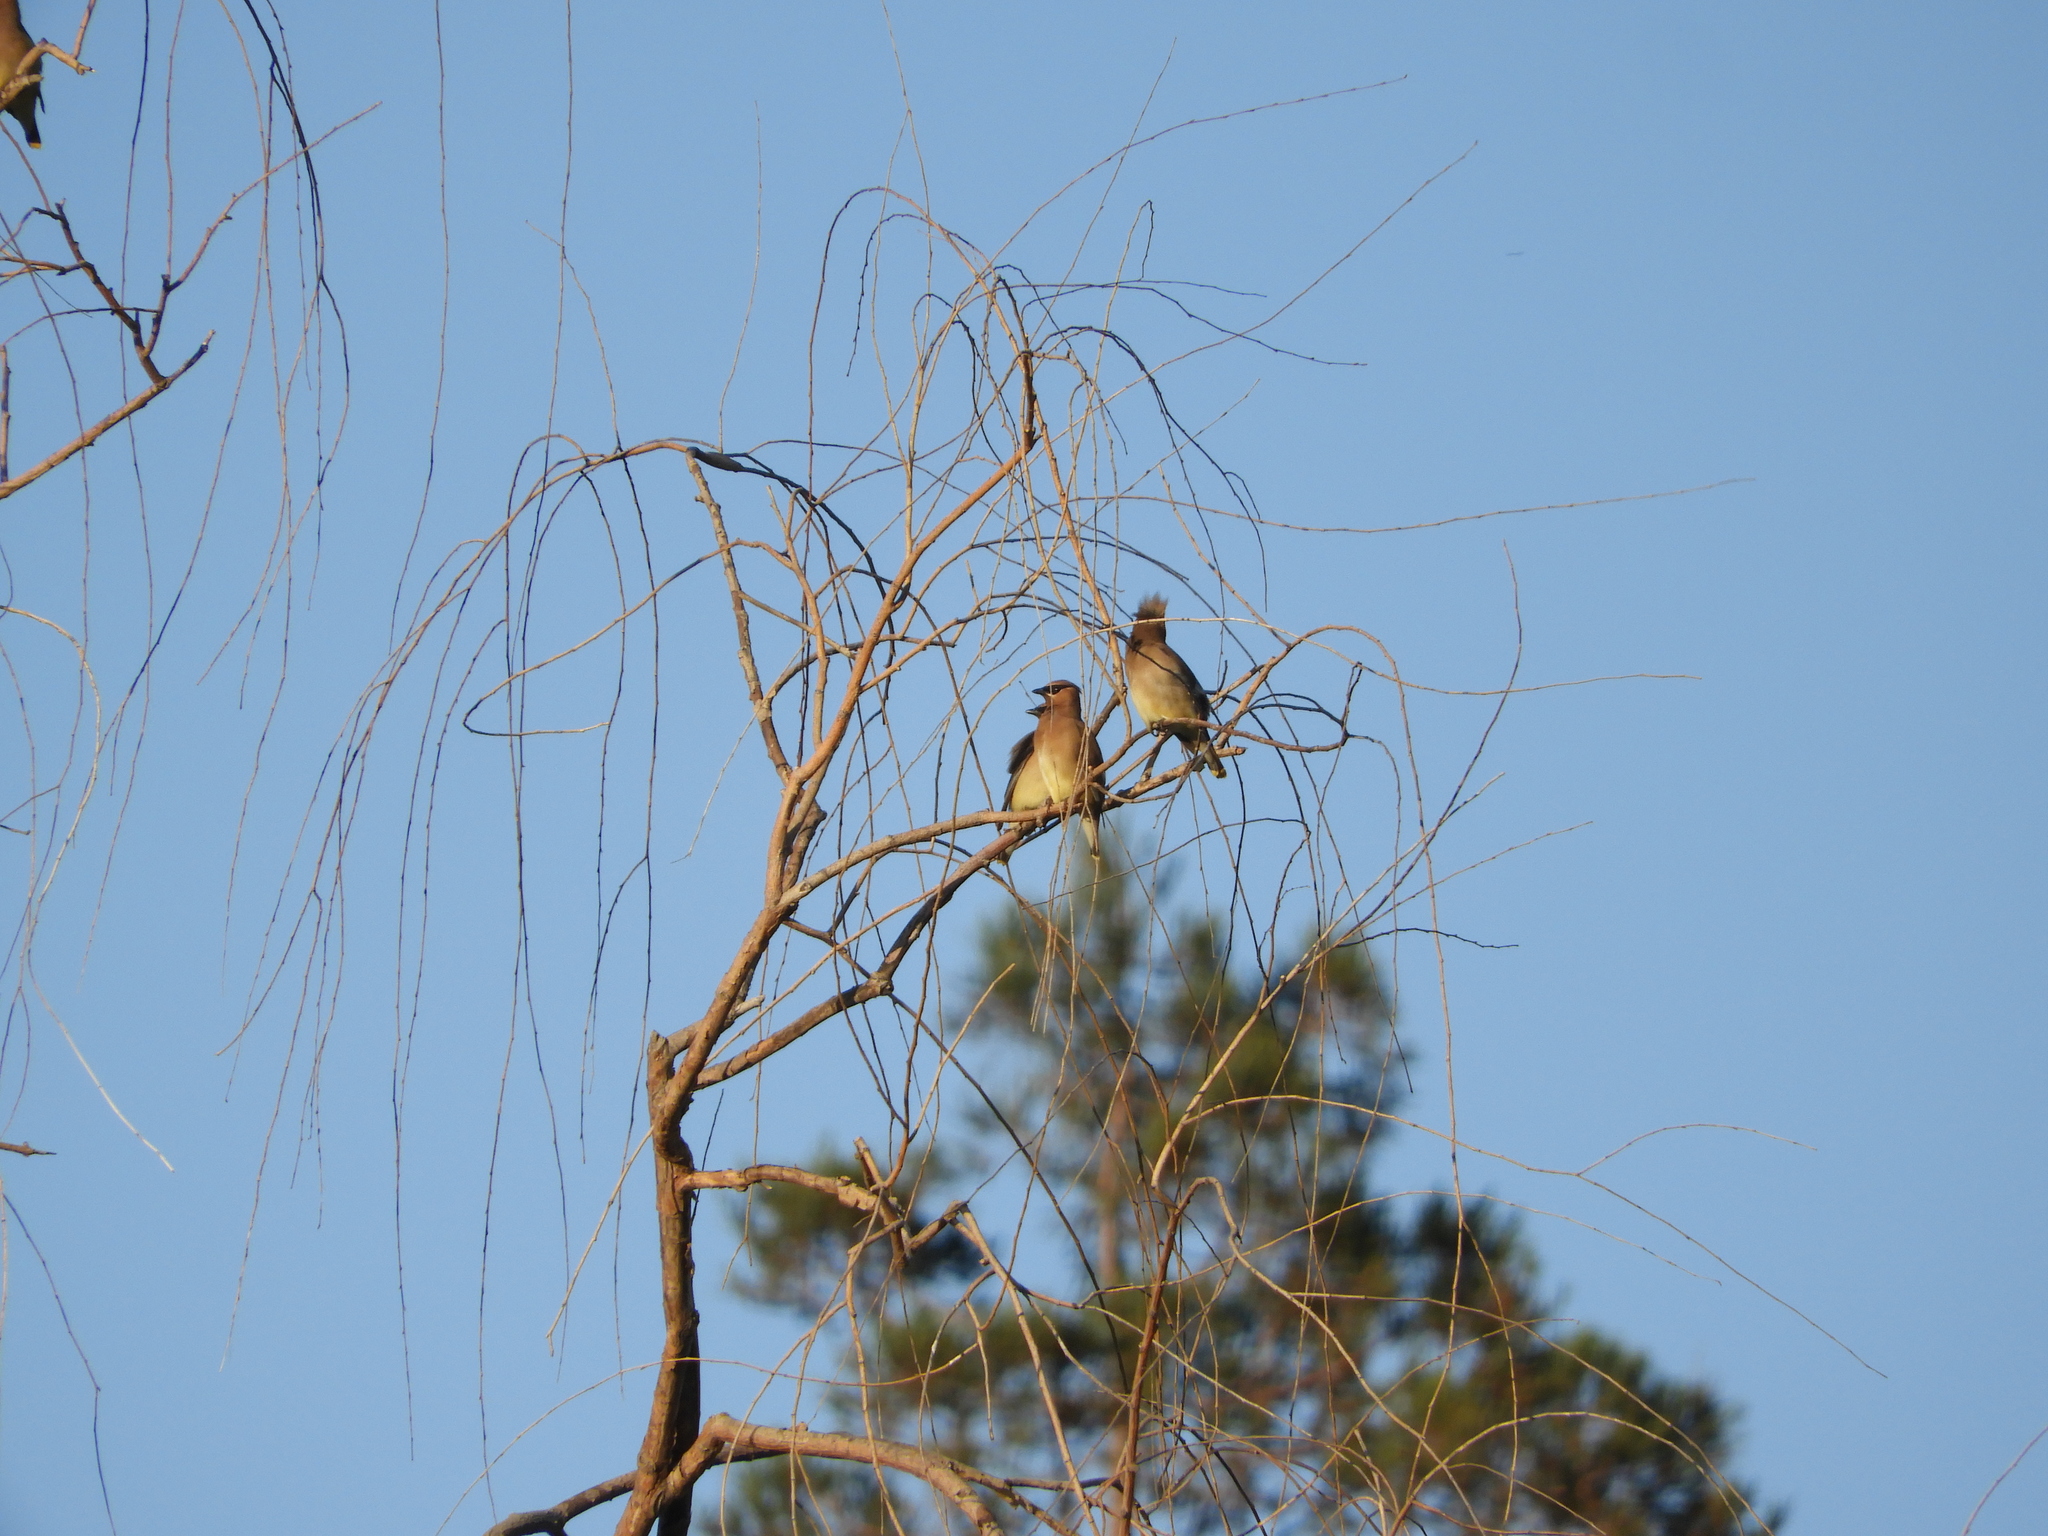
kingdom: Animalia
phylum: Chordata
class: Aves
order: Passeriformes
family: Bombycillidae
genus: Bombycilla
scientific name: Bombycilla cedrorum
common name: Cedar waxwing
